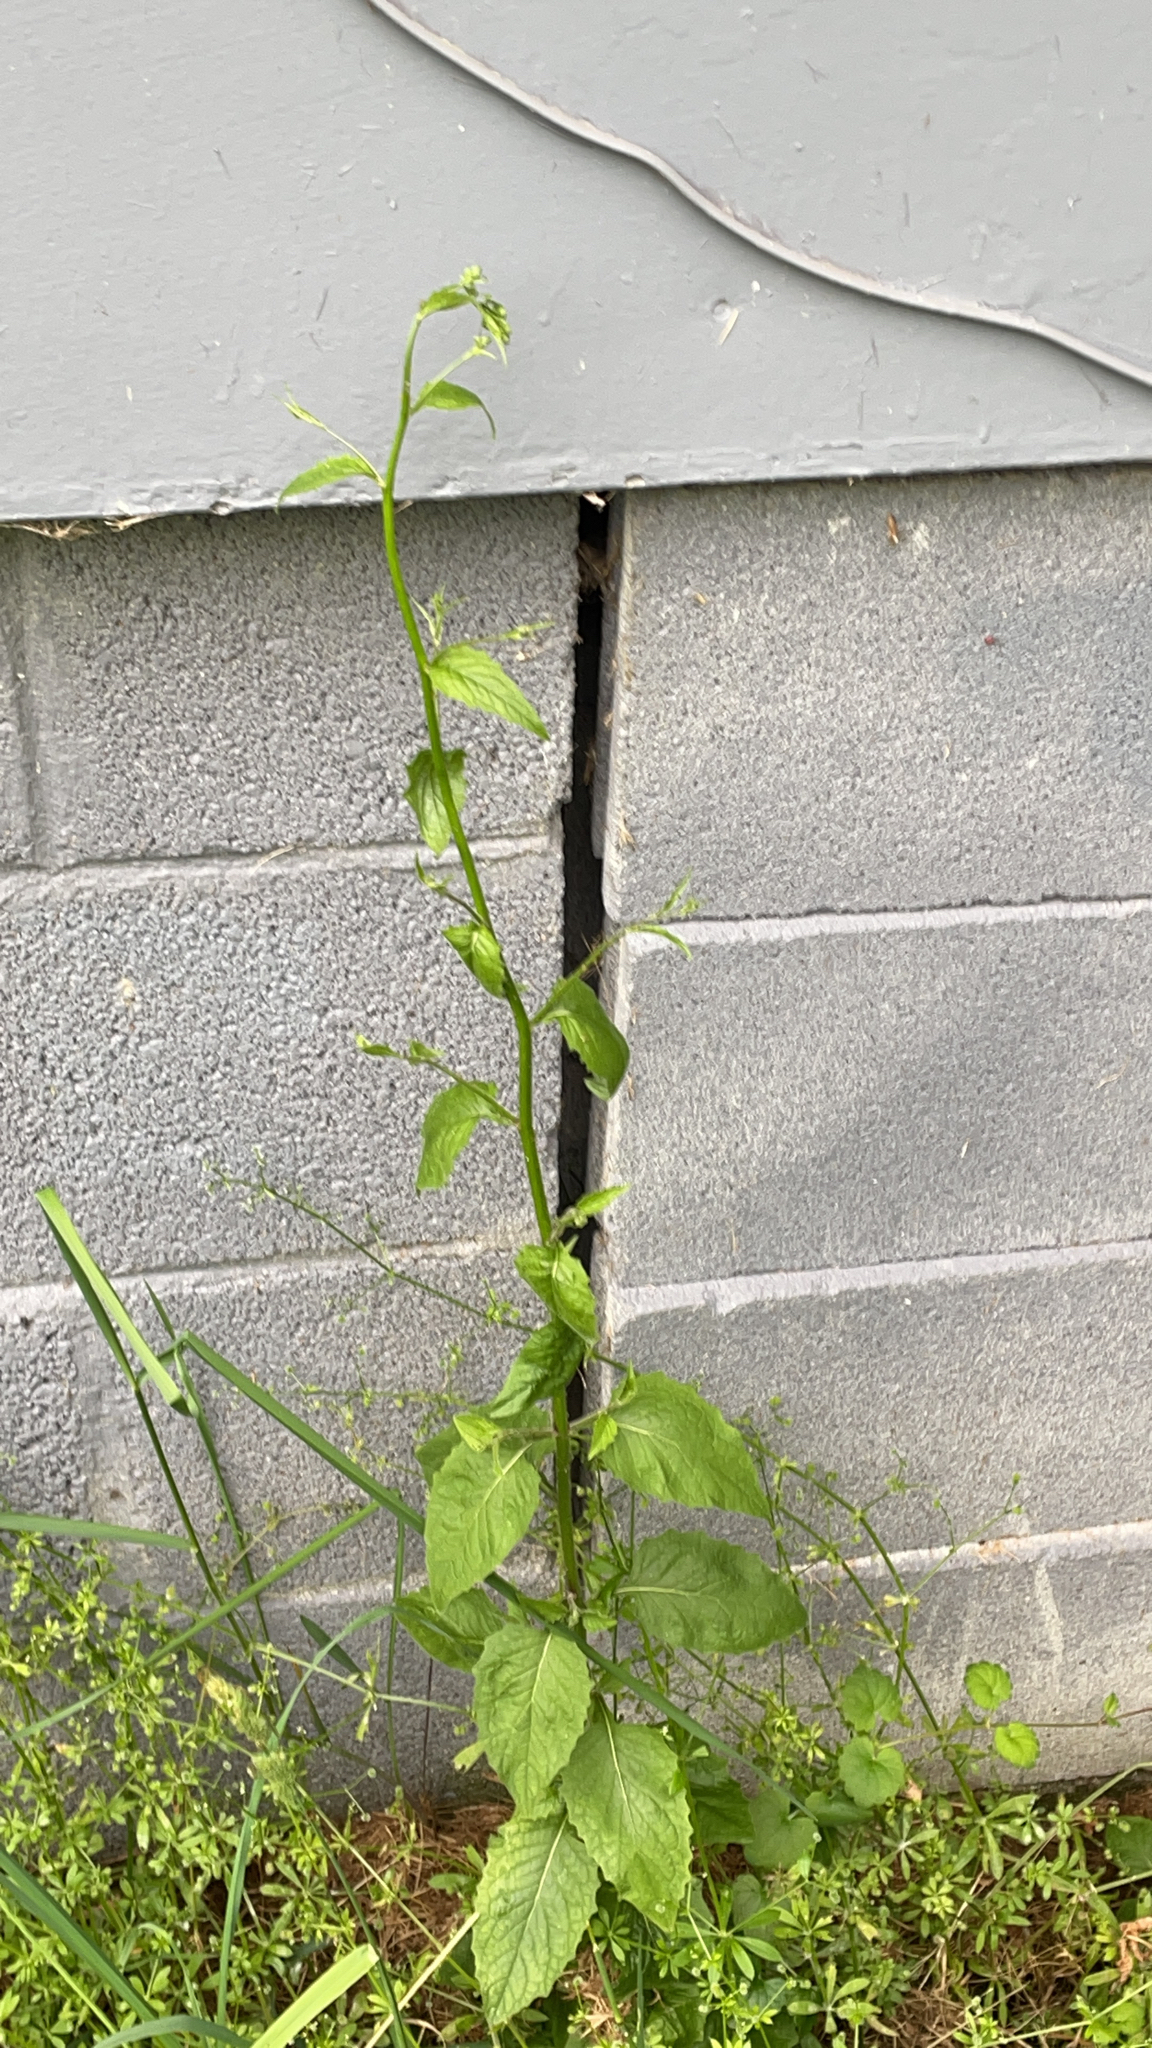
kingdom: Plantae
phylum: Tracheophyta
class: Magnoliopsida
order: Asterales
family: Asteraceae
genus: Lapsana
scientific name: Lapsana communis
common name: Nipplewort
